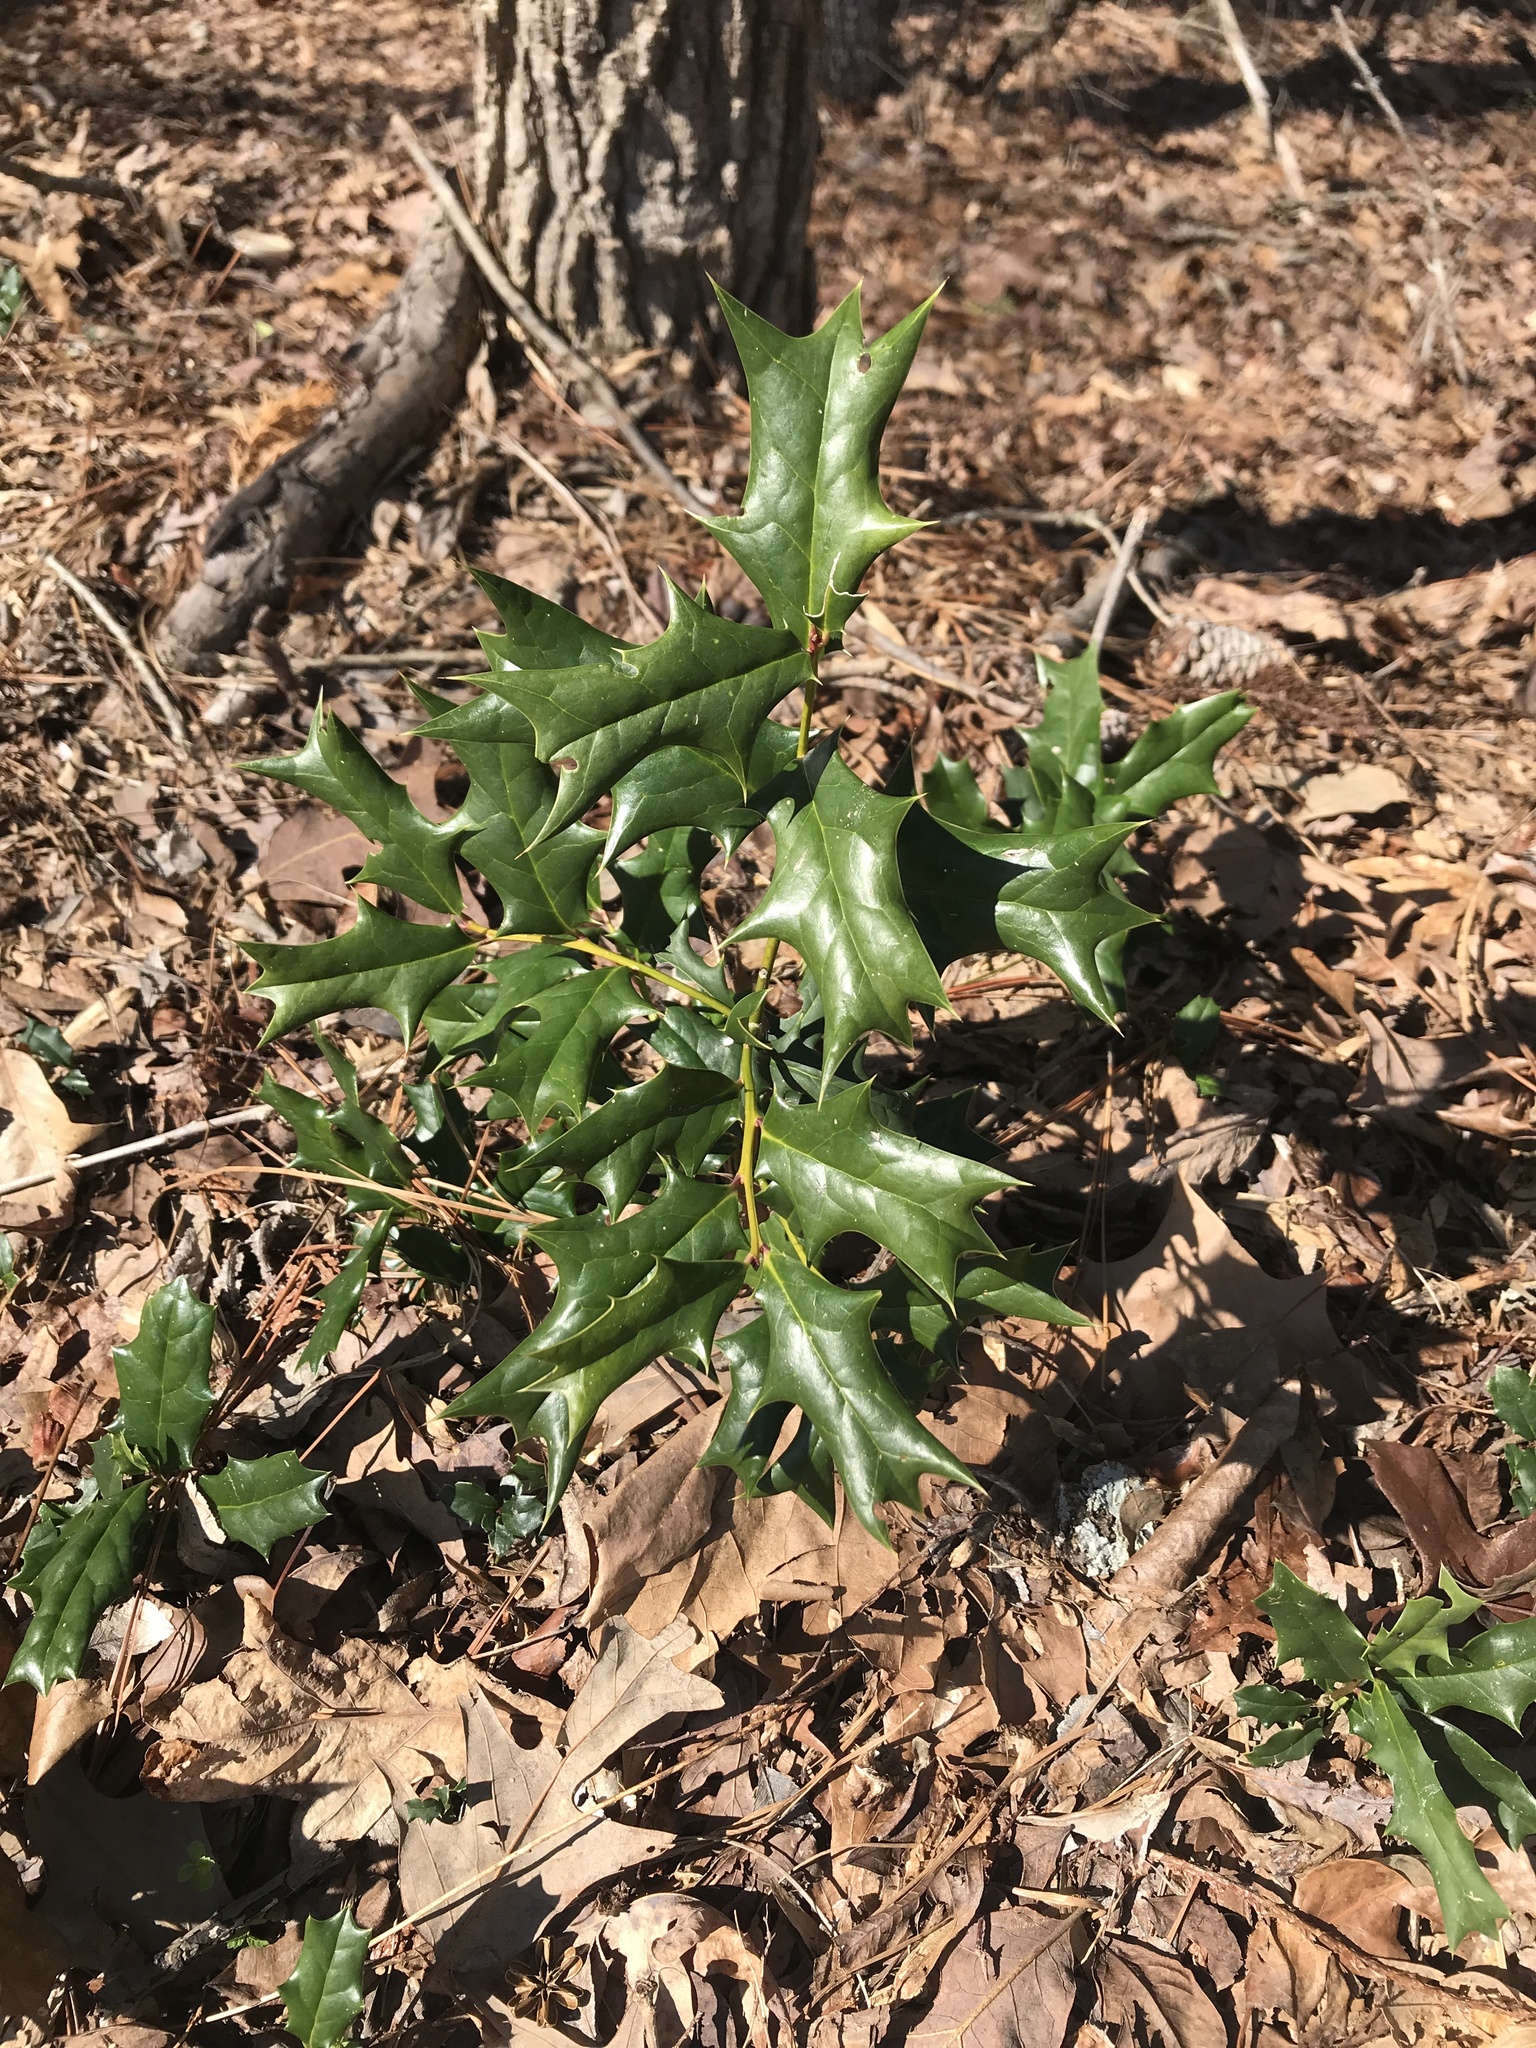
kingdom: Plantae
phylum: Tracheophyta
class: Magnoliopsida
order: Aquifoliales
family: Aquifoliaceae
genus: Ilex
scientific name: Ilex cornuta
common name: Chinese holly
